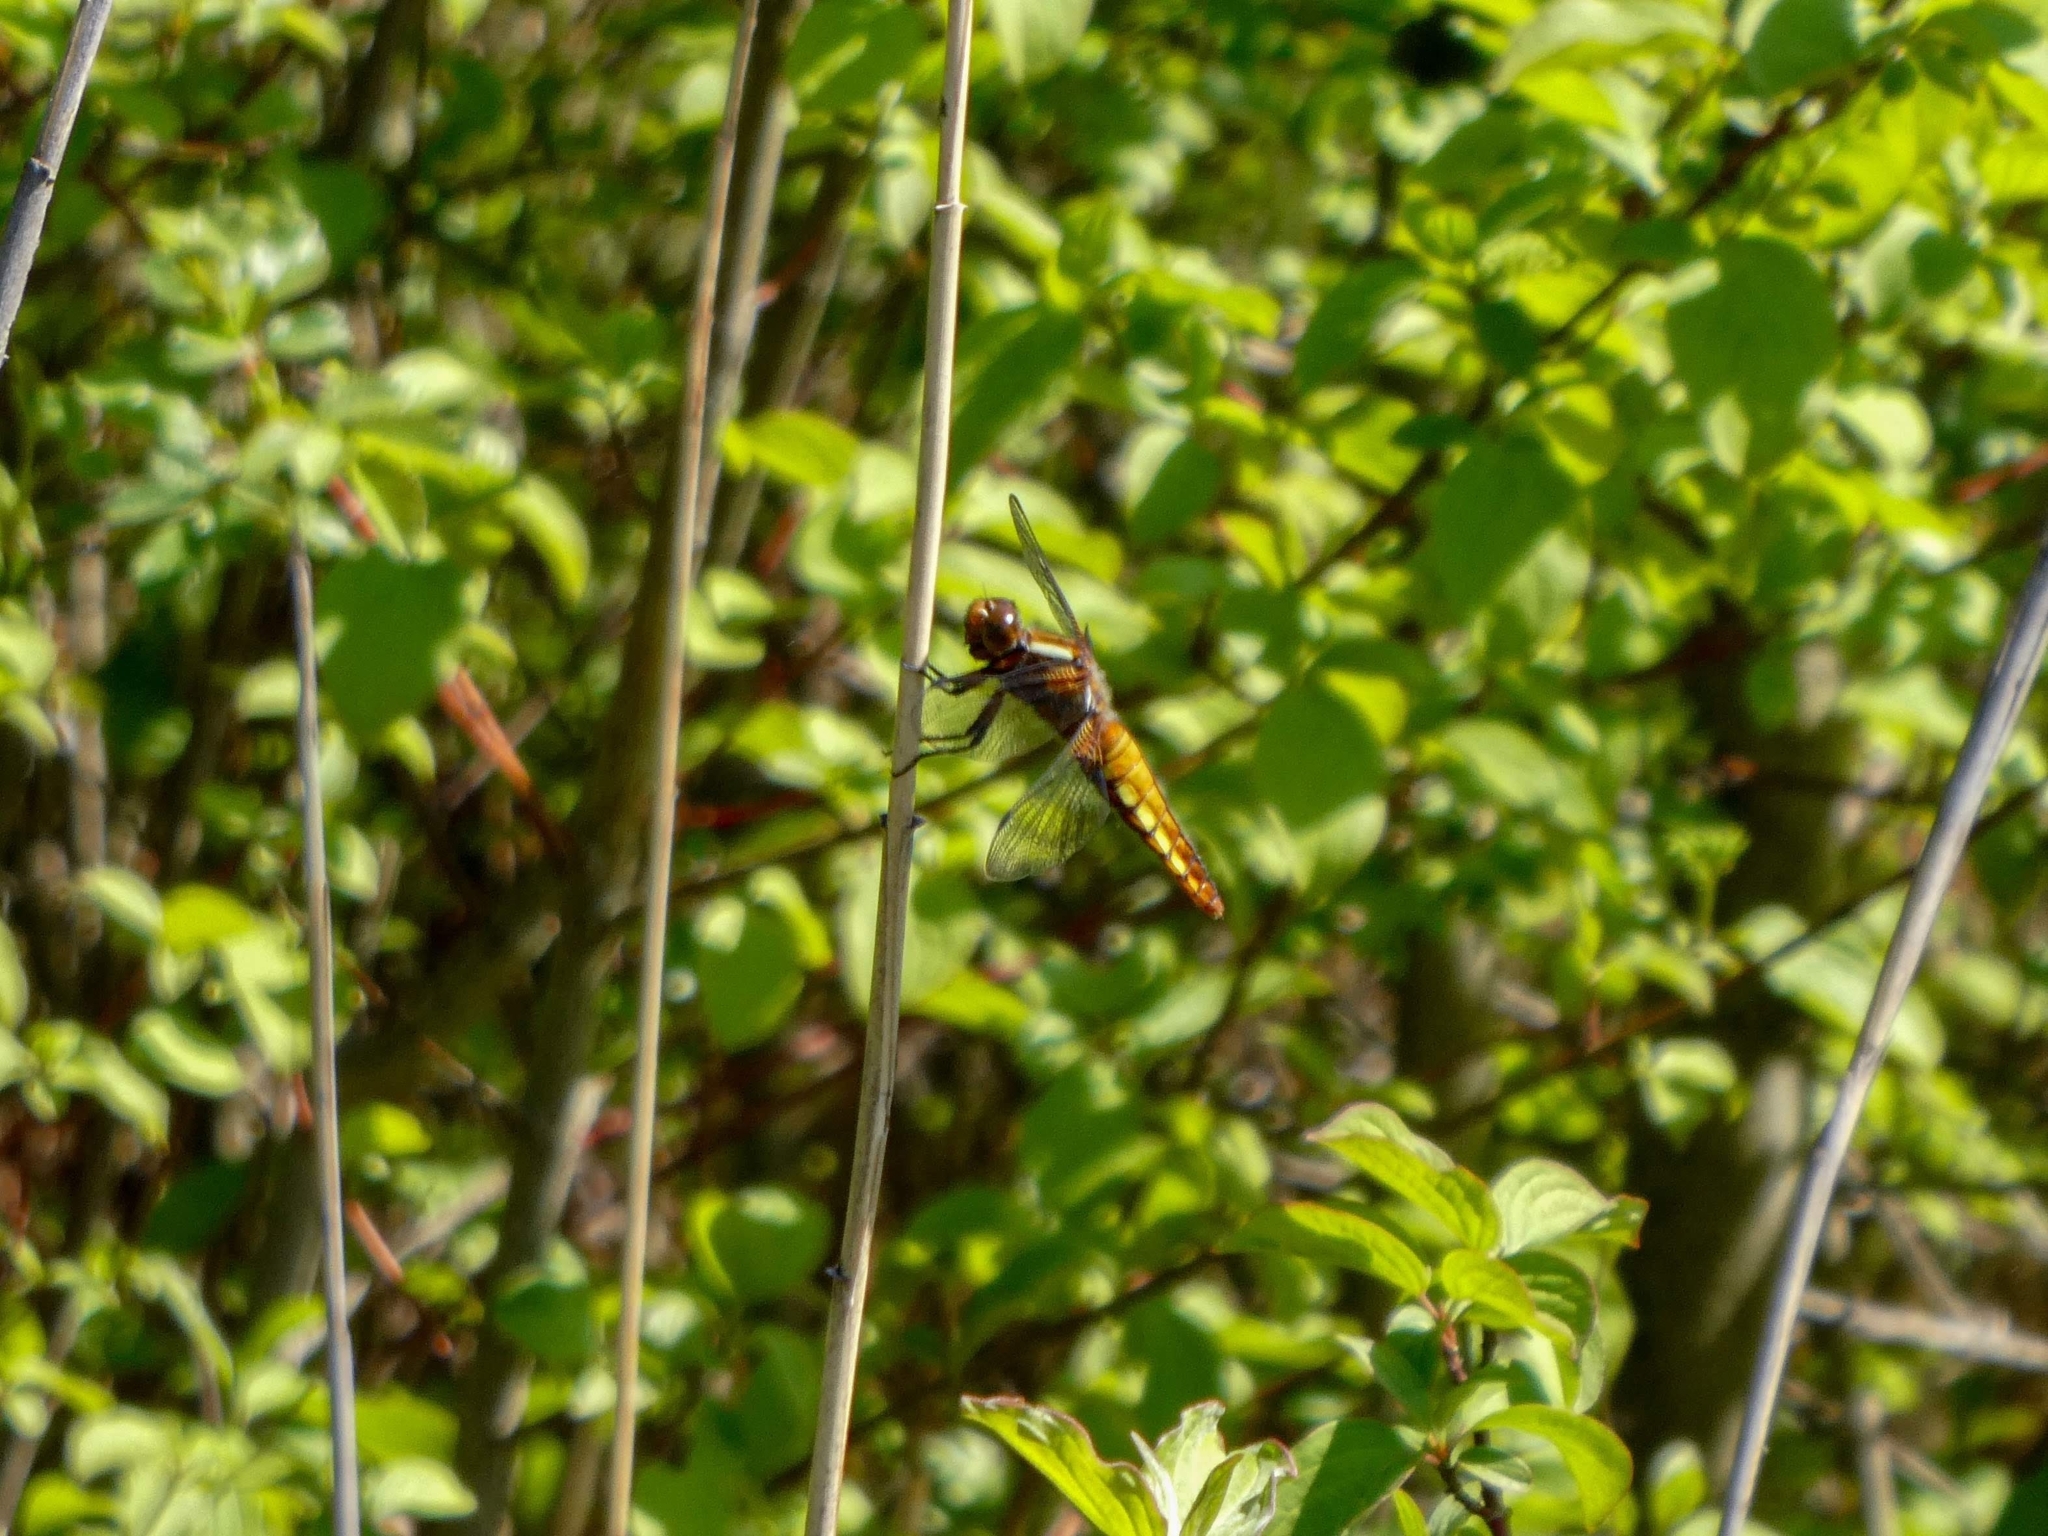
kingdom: Animalia
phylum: Arthropoda
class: Insecta
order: Odonata
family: Libellulidae
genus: Libellula
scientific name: Libellula depressa
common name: Broad-bodied chaser
